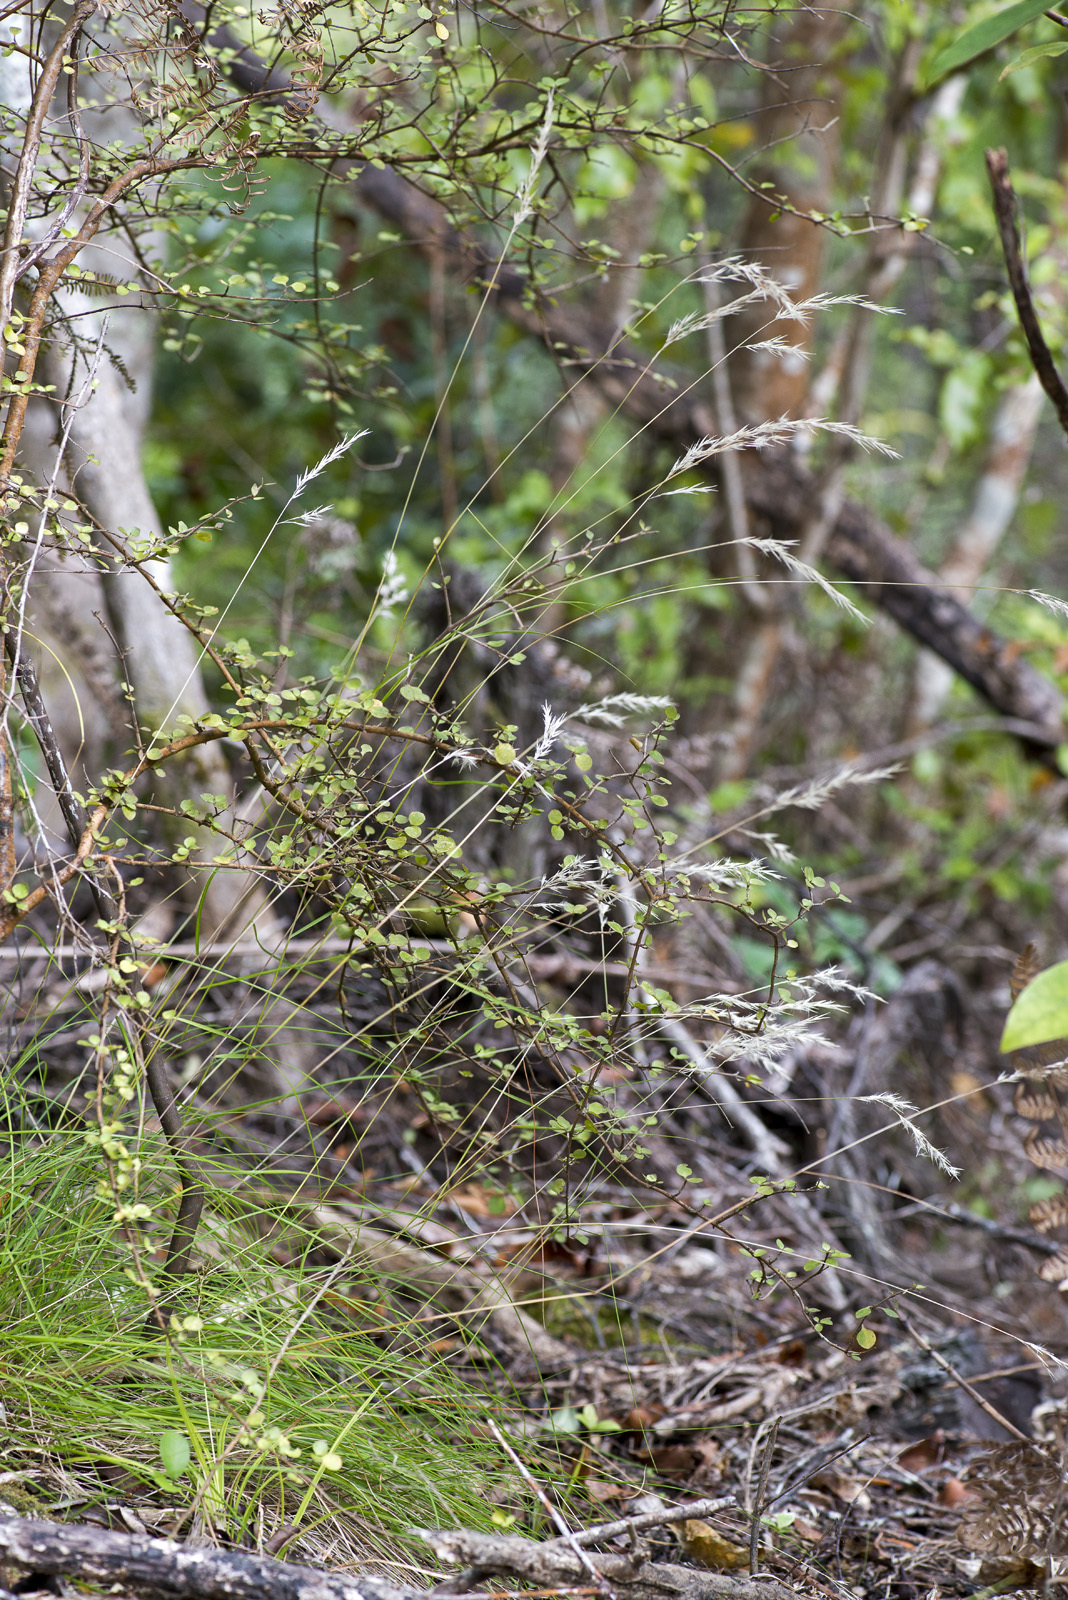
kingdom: Plantae
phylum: Tracheophyta
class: Liliopsida
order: Poales
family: Poaceae
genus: Rytidosperma
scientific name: Rytidosperma gracile
